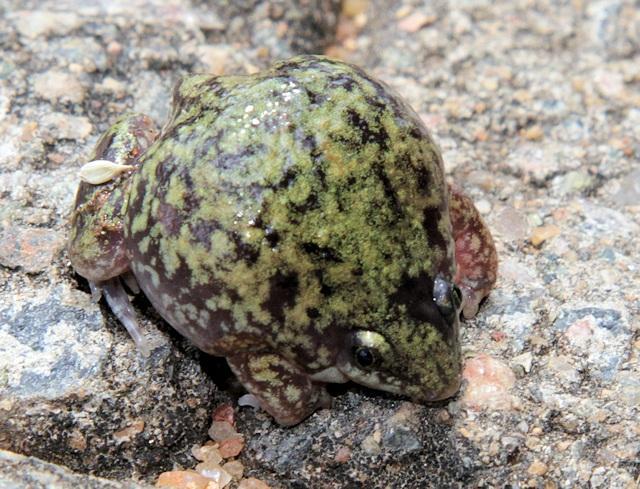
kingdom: Animalia
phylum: Chordata
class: Amphibia
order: Anura
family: Hemisotidae
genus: Hemisus
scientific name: Hemisus marmoratus
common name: Mottled shovel-nosed frog
